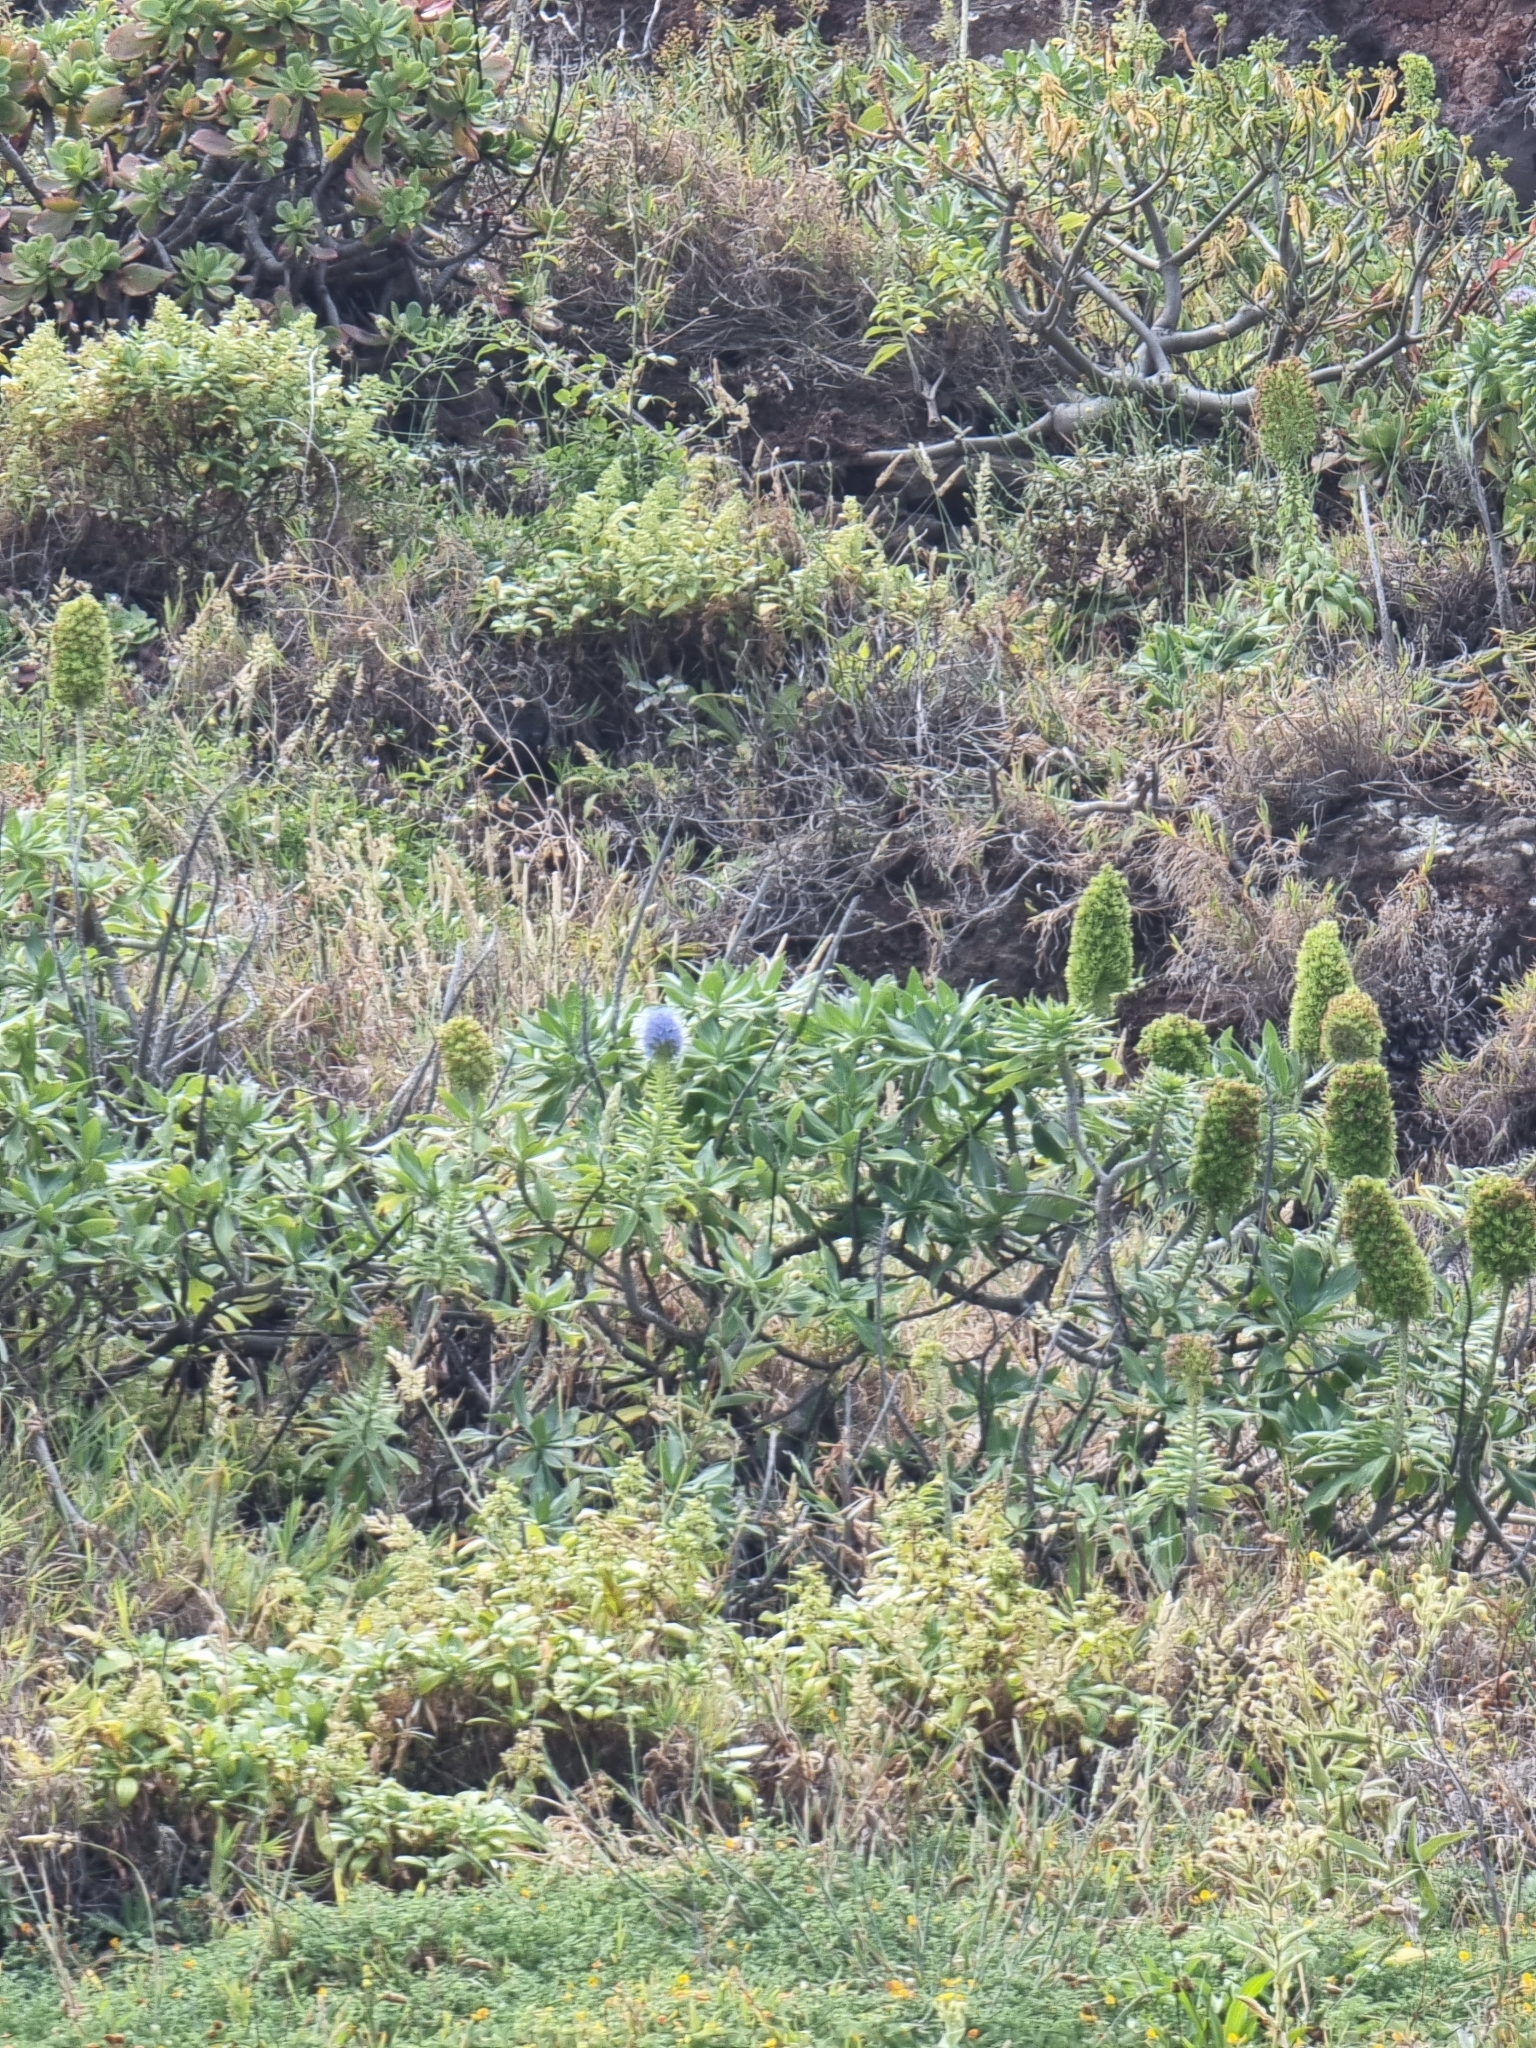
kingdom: Plantae
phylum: Tracheophyta
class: Magnoliopsida
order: Boraginales
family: Boraginaceae
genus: Echium
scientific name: Echium nervosum
